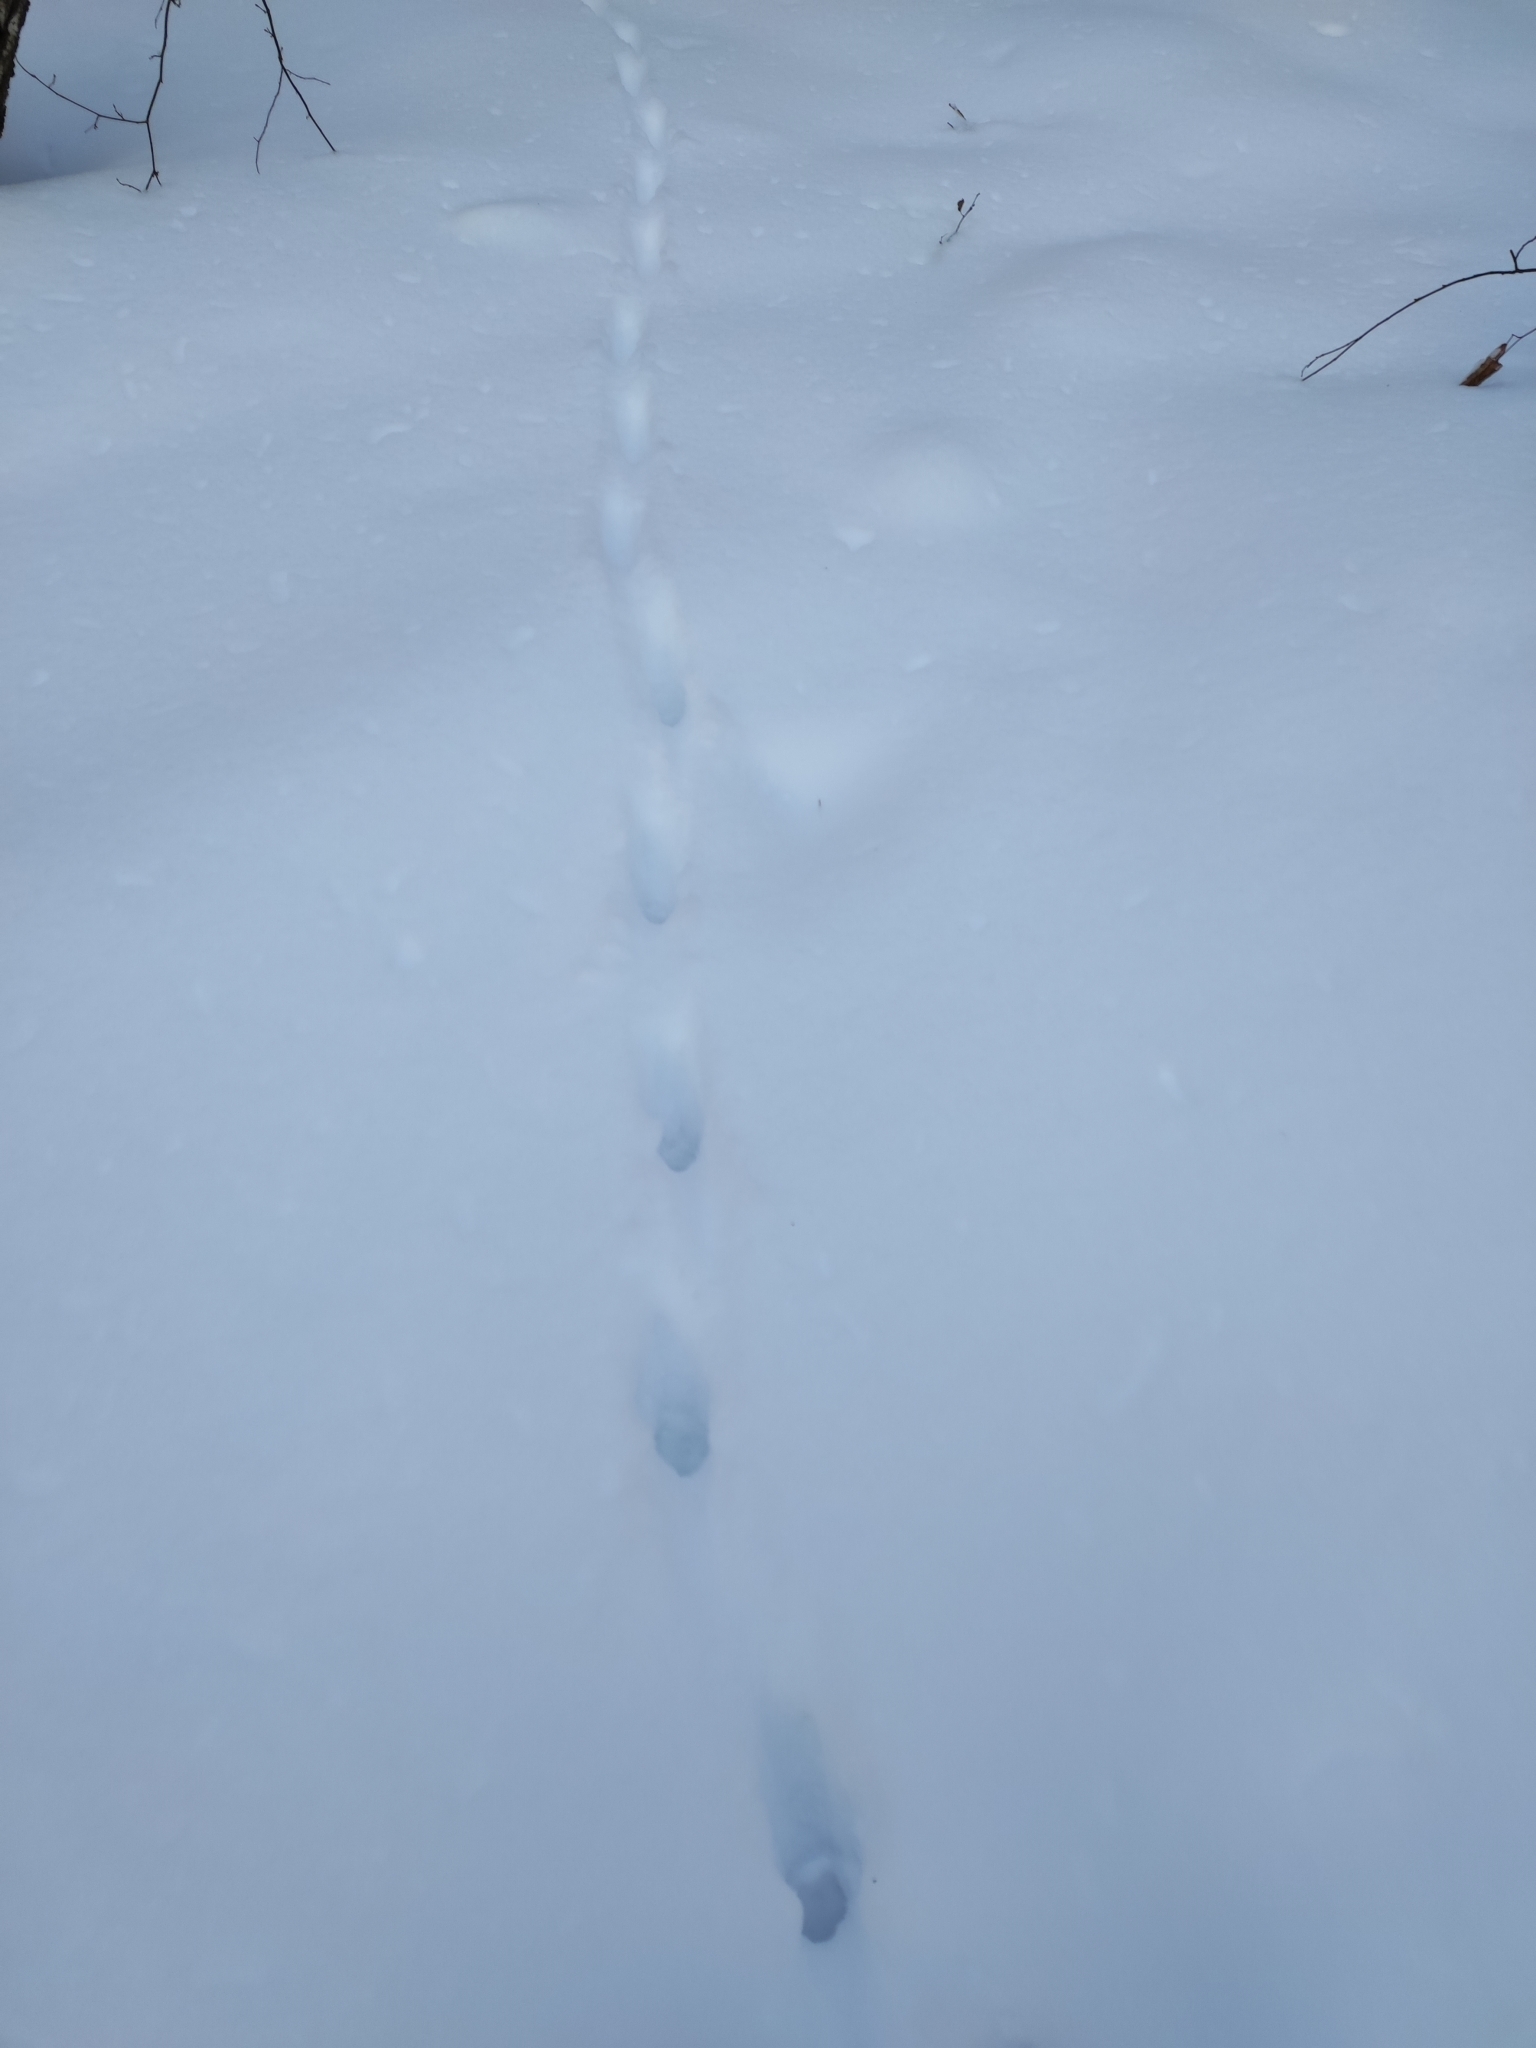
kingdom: Animalia
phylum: Chordata
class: Mammalia
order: Carnivora
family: Canidae
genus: Vulpes
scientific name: Vulpes vulpes
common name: Red fox
